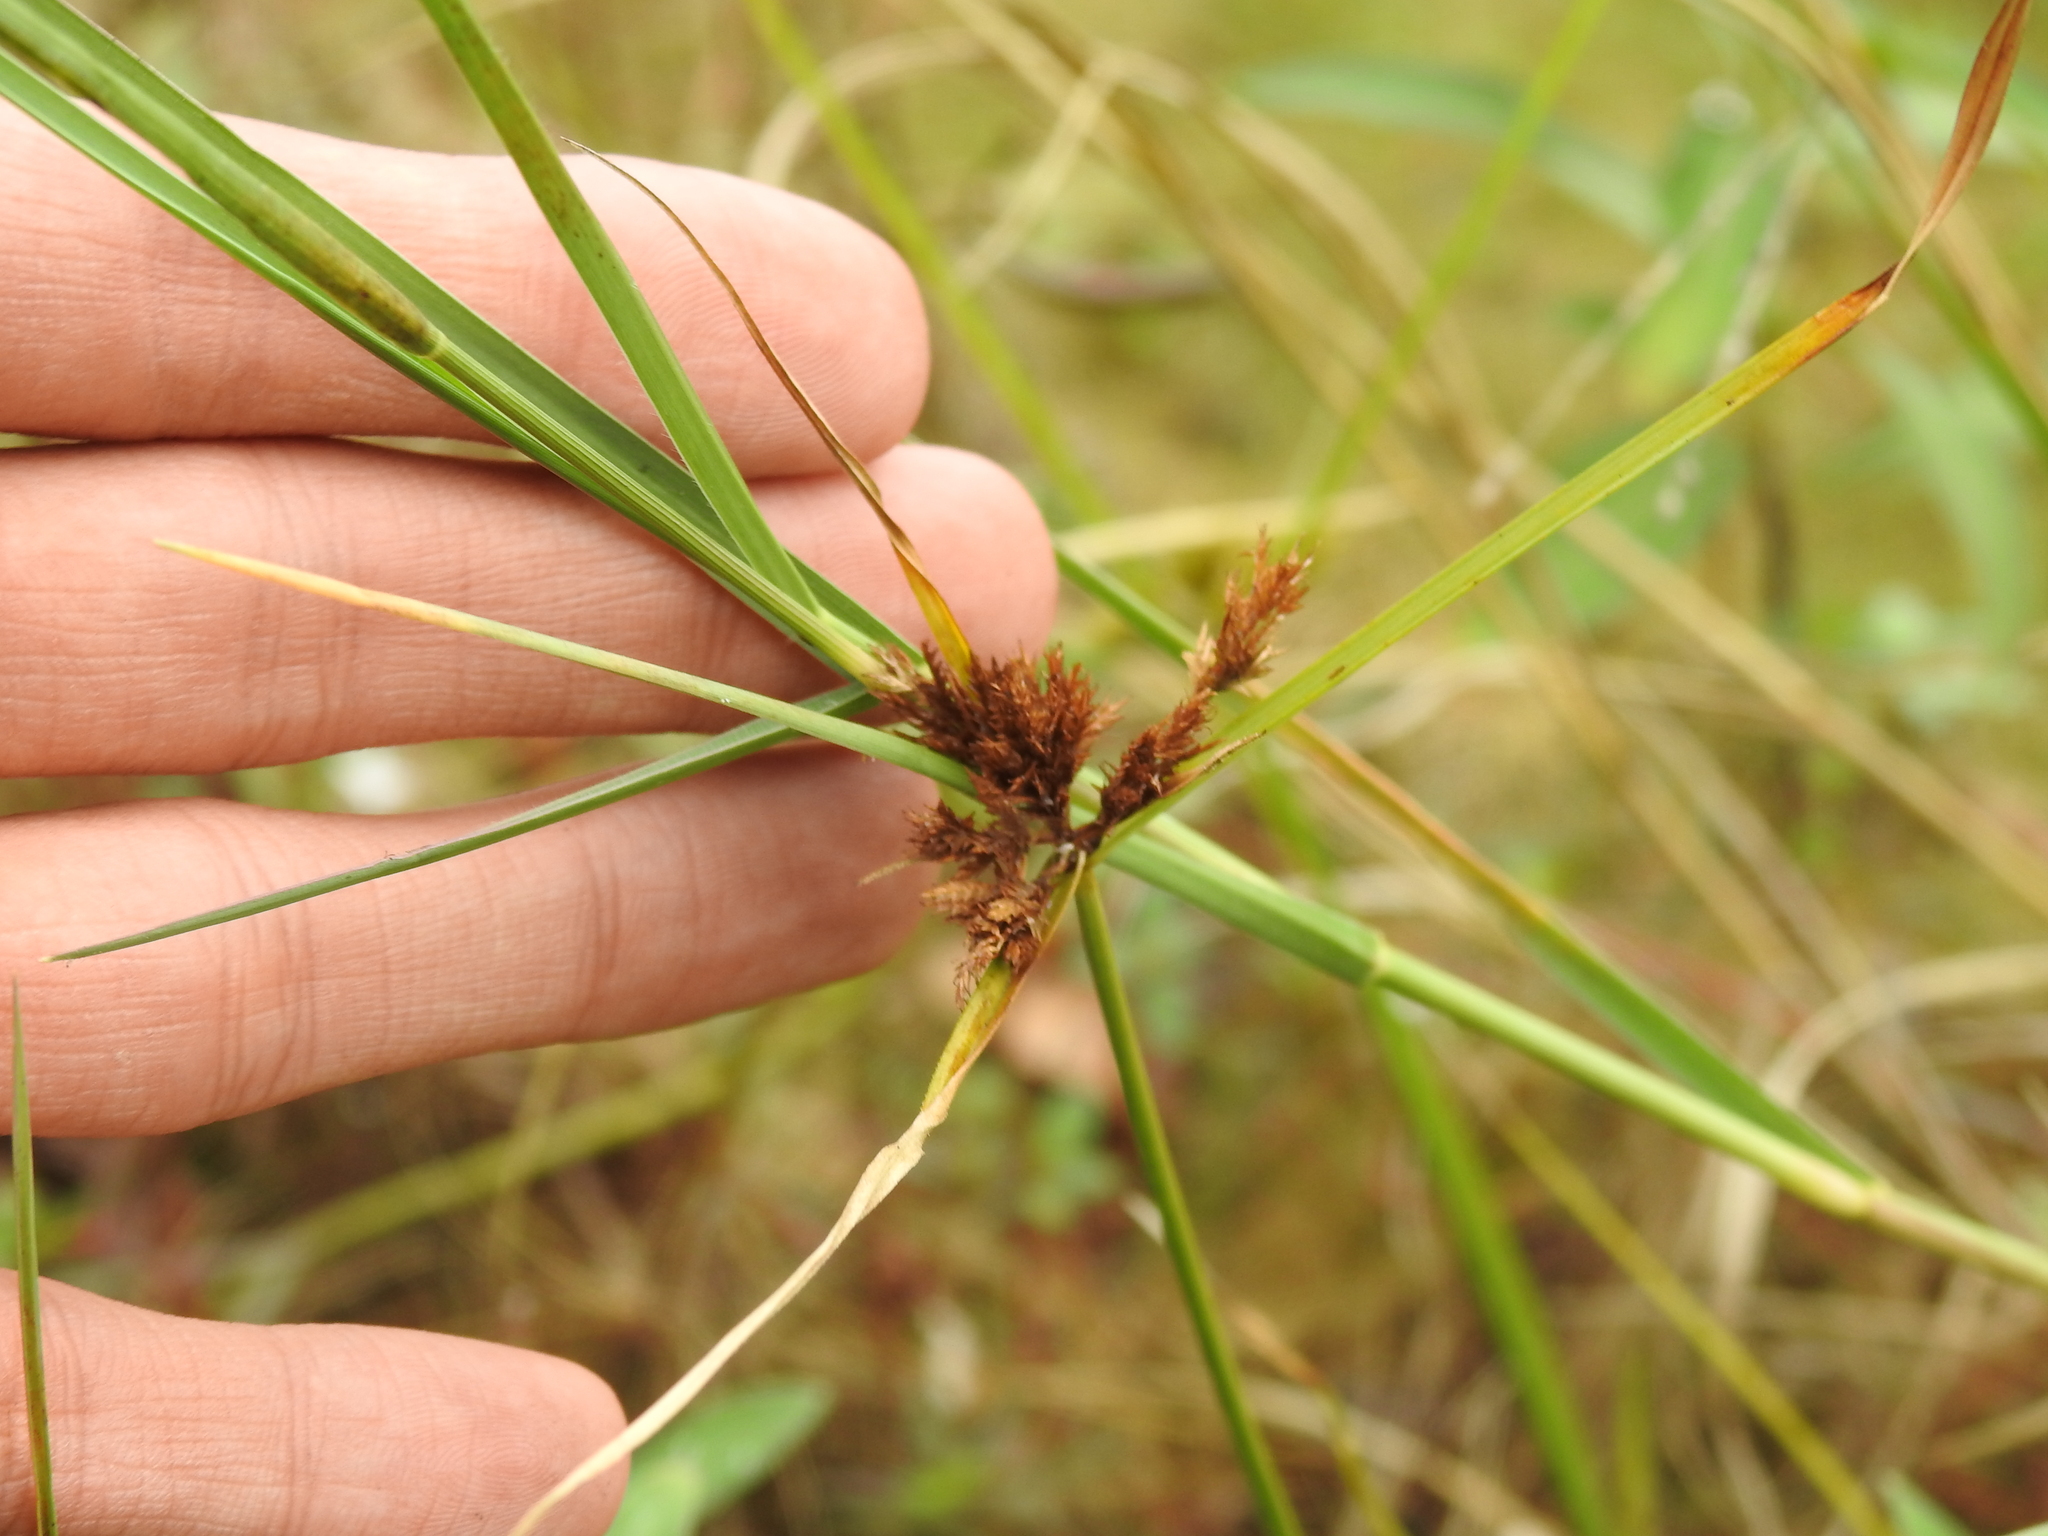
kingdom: Plantae
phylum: Tracheophyta
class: Liliopsida
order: Poales
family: Cyperaceae
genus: Cyperus
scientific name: Cyperus polystachyos
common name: Bunchy flat sedge
